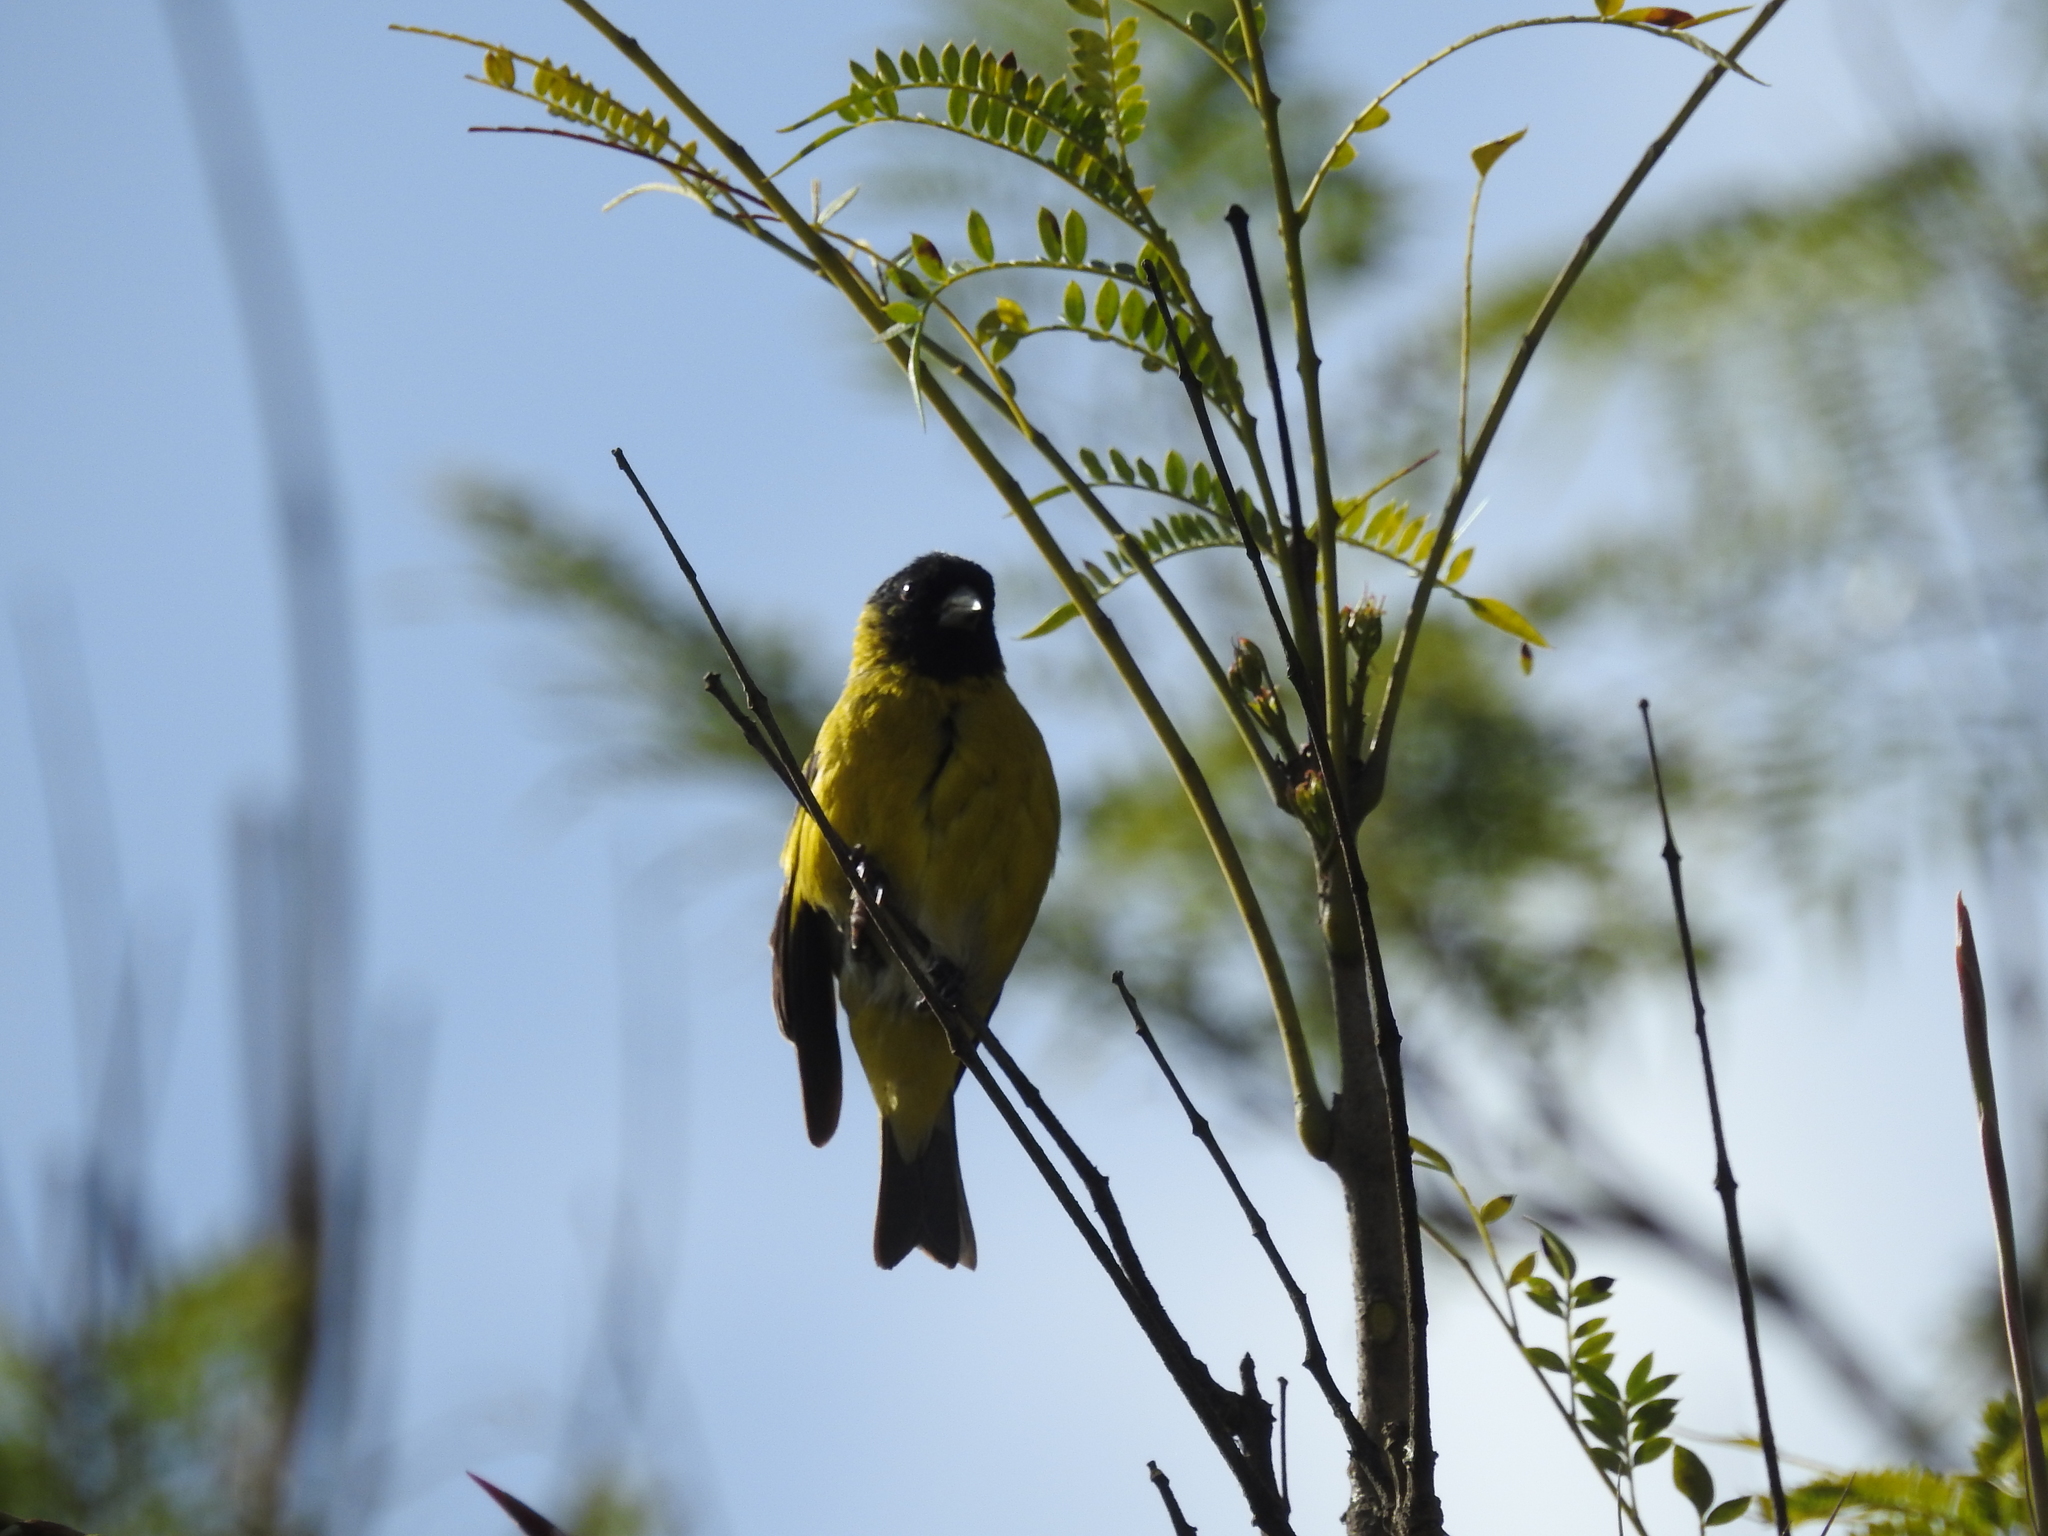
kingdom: Animalia
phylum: Chordata
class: Aves
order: Passeriformes
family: Fringillidae
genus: Spinus
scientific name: Spinus magellanicus
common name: Hooded siskin
